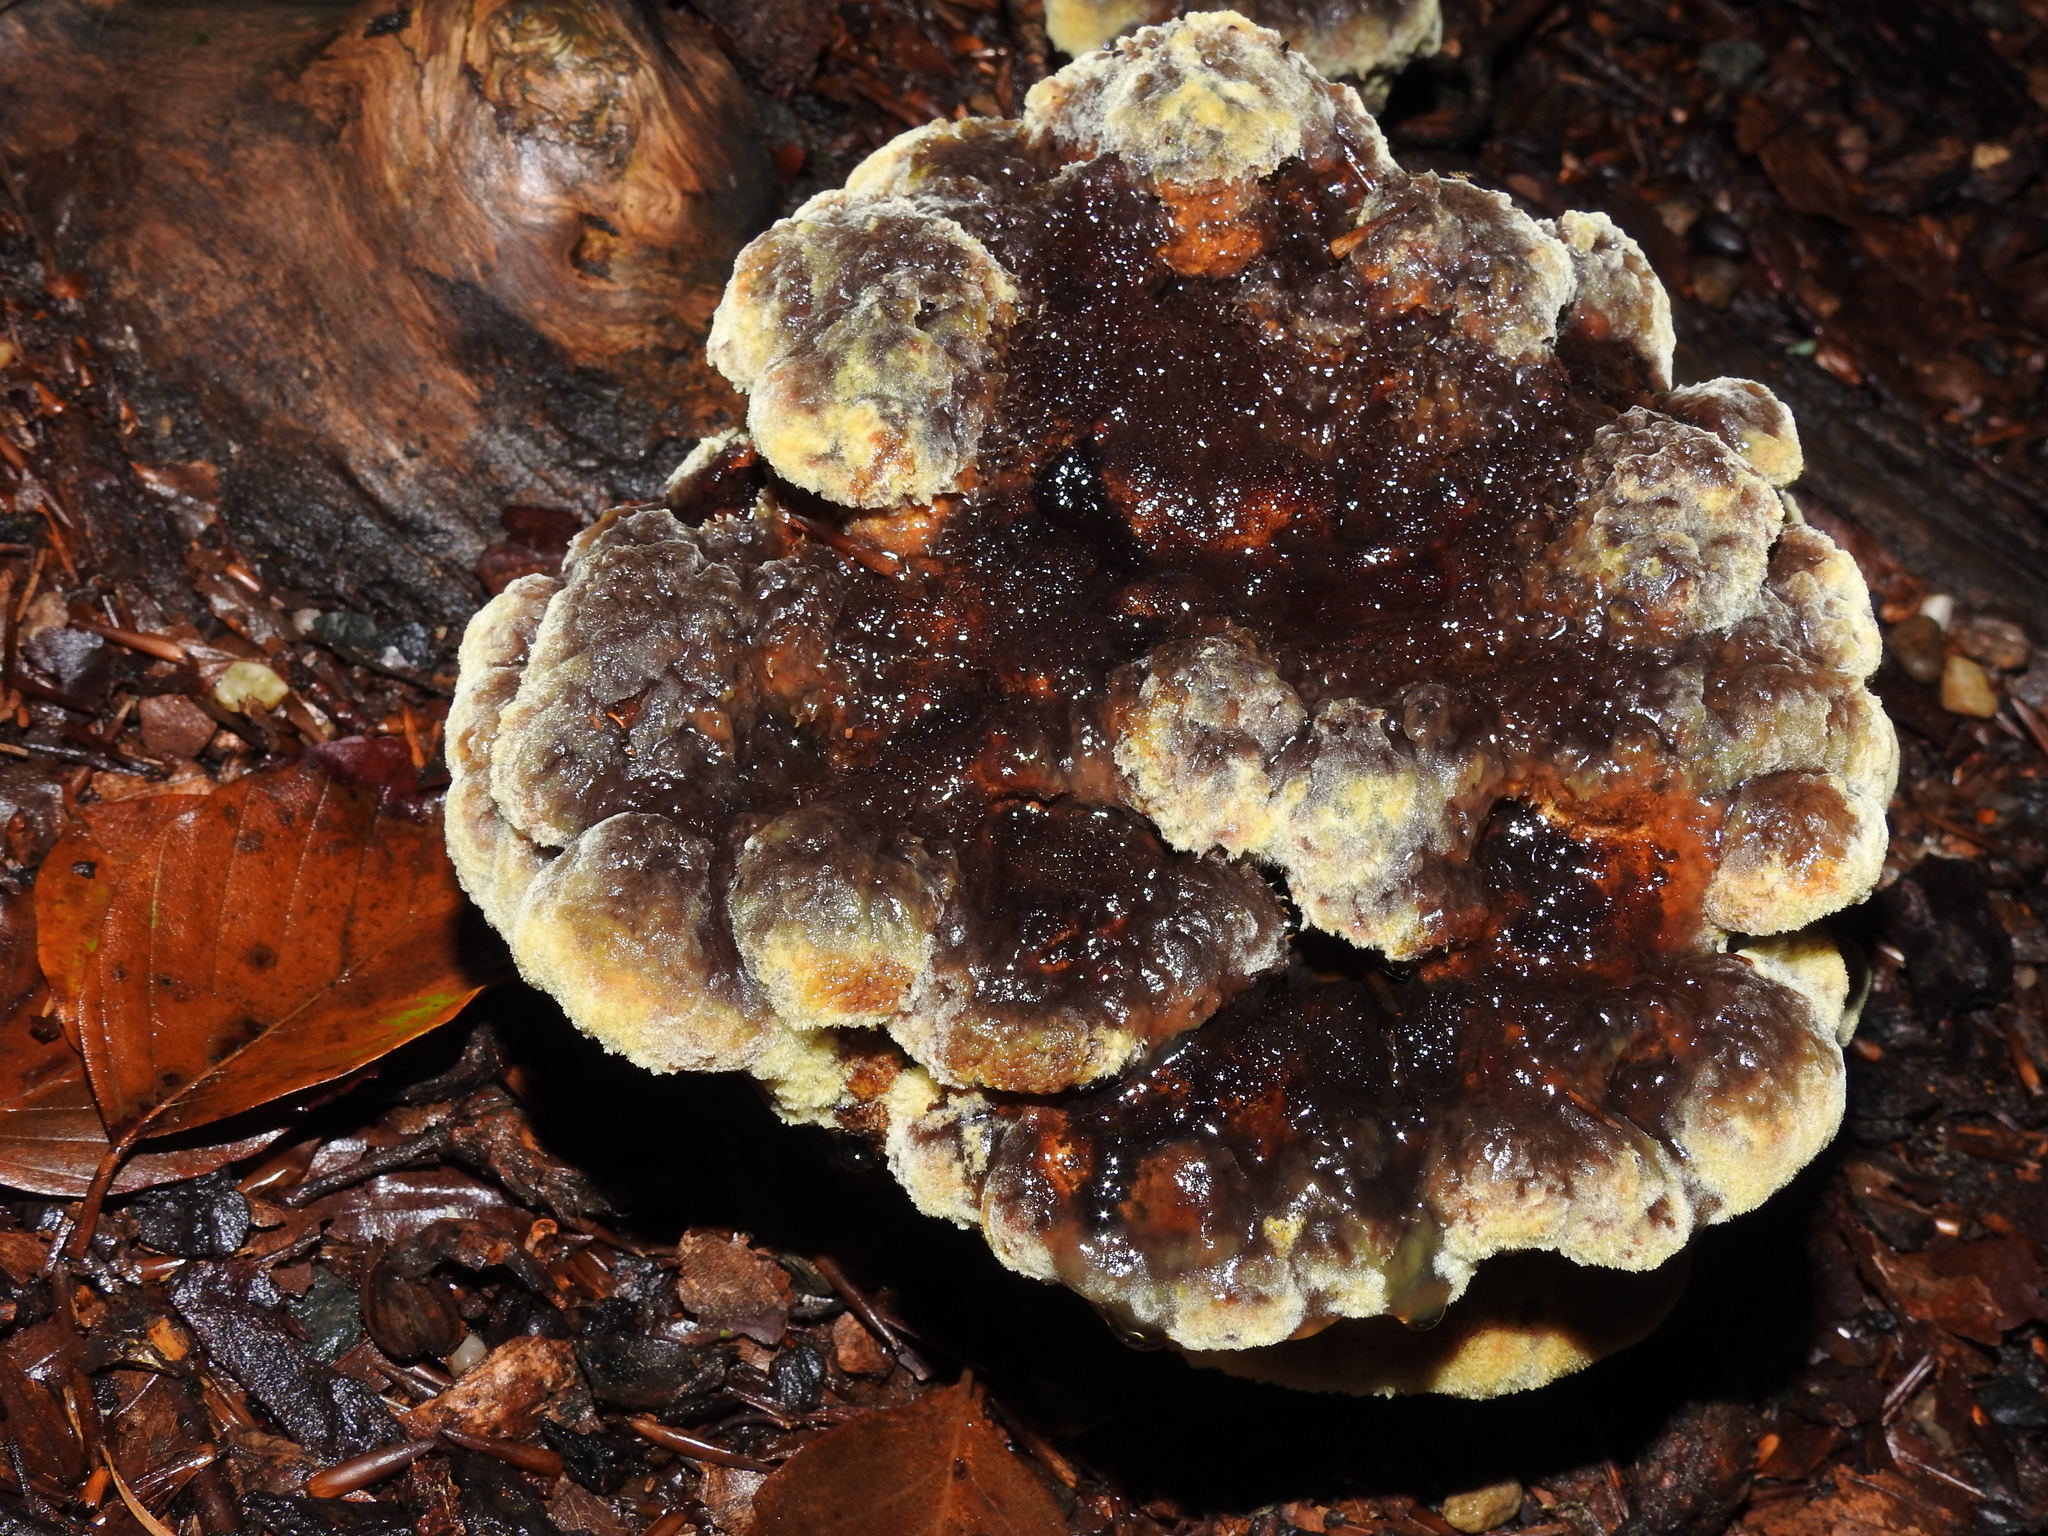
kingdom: Fungi
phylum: Basidiomycota
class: Agaricomycetes
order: Polyporales
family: Laetiporaceae
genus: Phaeolus
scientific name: Phaeolus schweinitzii
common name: Dyer's mazegill
